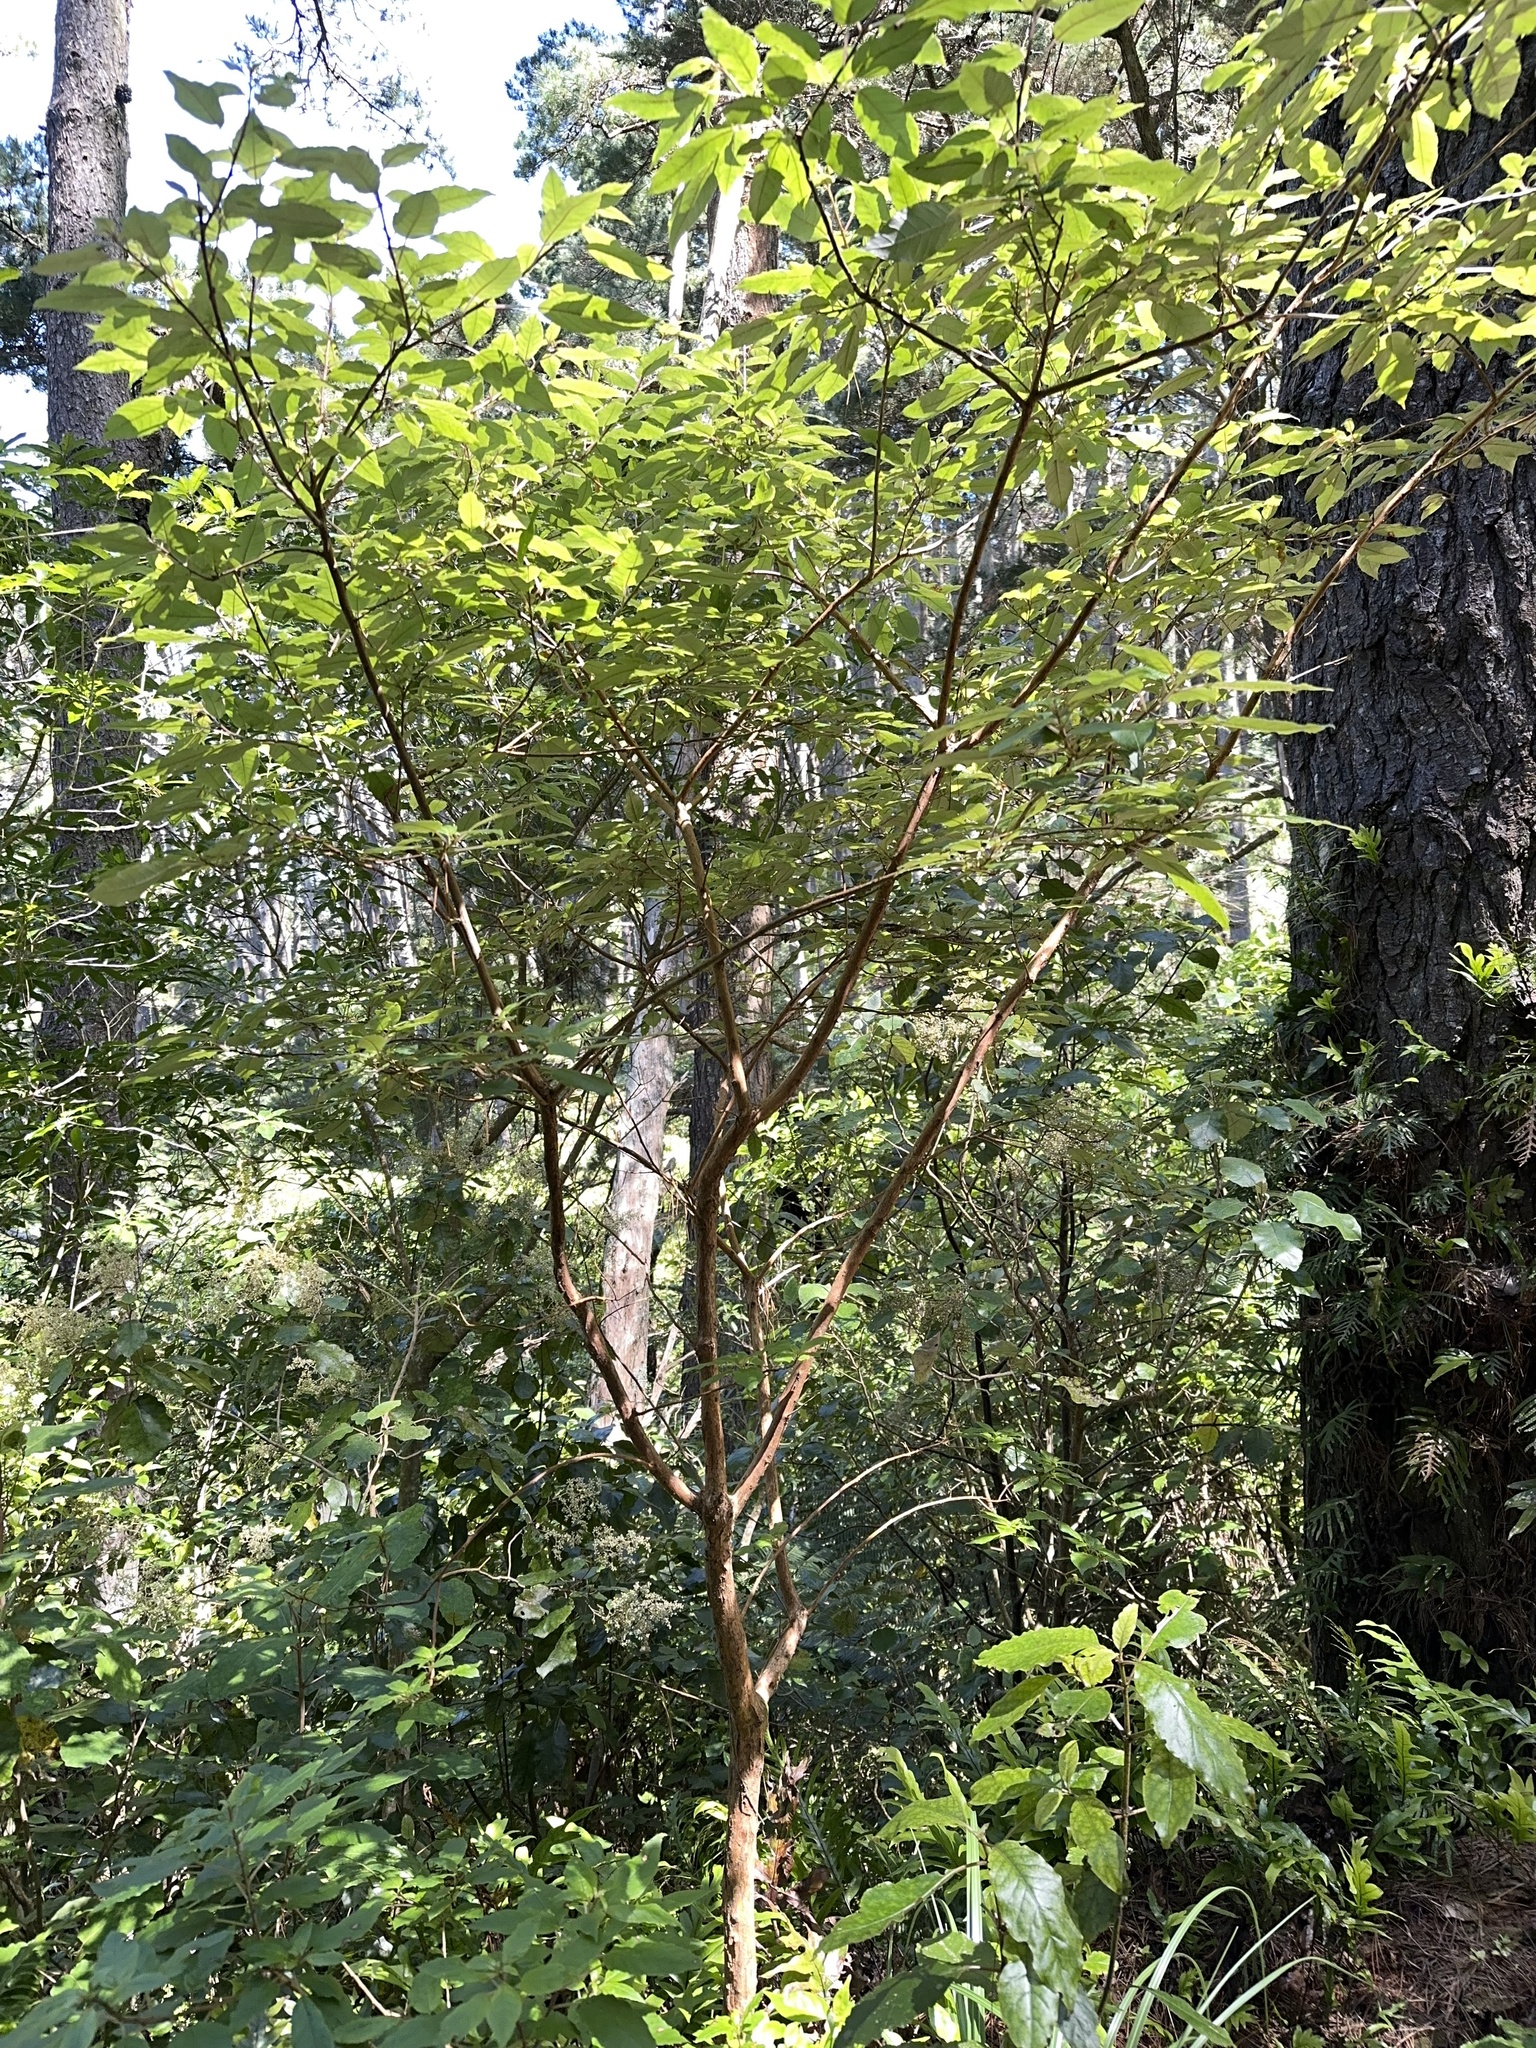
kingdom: Plantae
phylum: Tracheophyta
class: Magnoliopsida
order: Myrtales
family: Onagraceae
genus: Fuchsia
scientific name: Fuchsia excorticata
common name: Tree fuchsia
